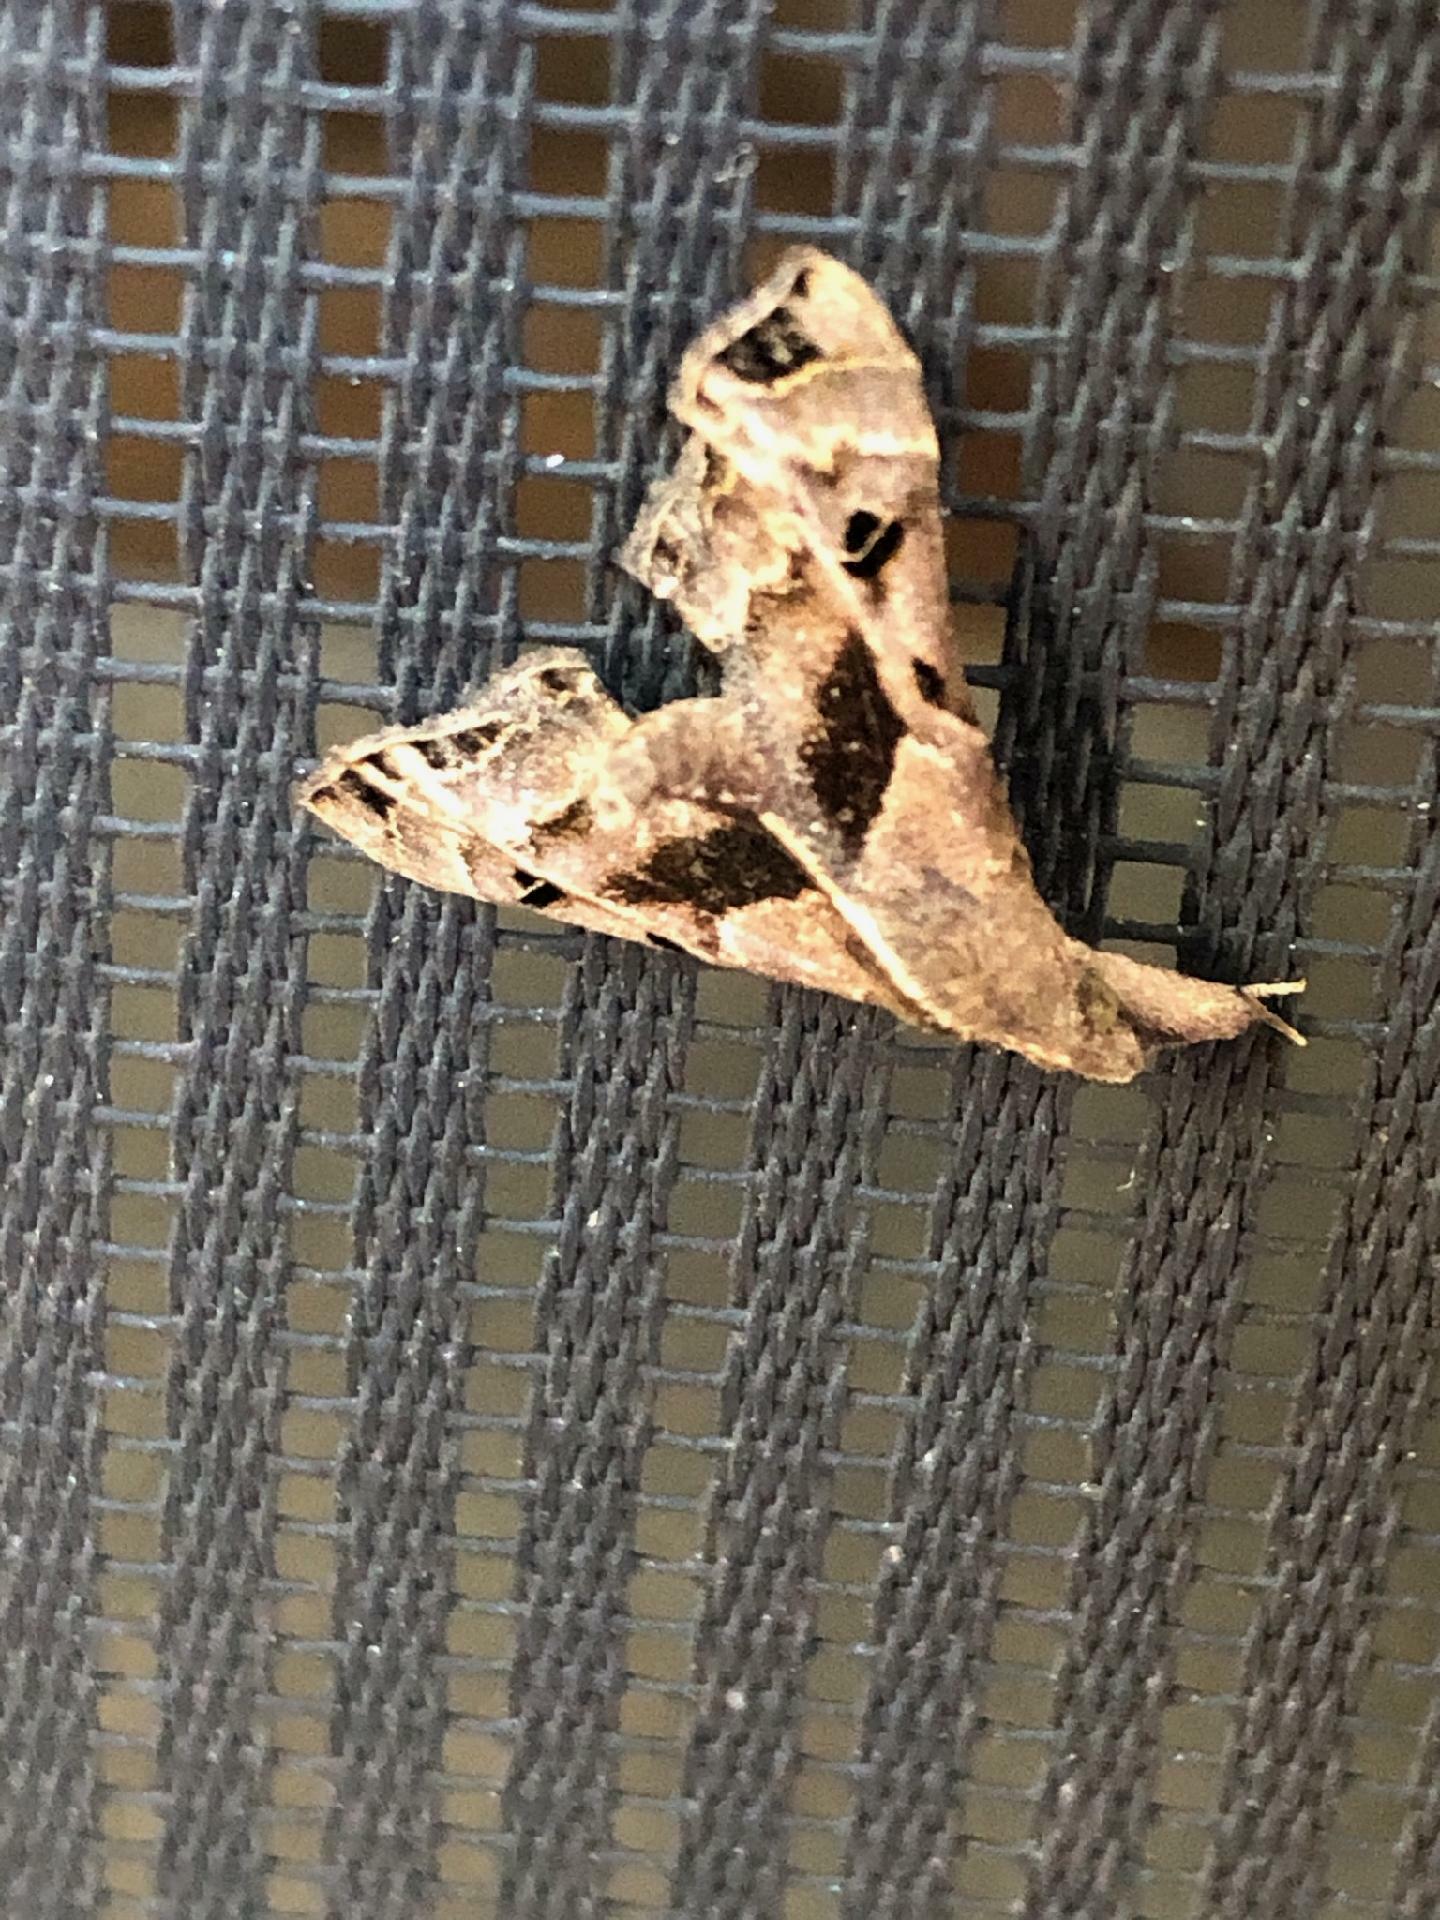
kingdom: Animalia
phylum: Arthropoda
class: Insecta
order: Lepidoptera
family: Erebidae
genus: Palthis
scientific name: Palthis asopialis
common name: Faint-spotted palthis moth
